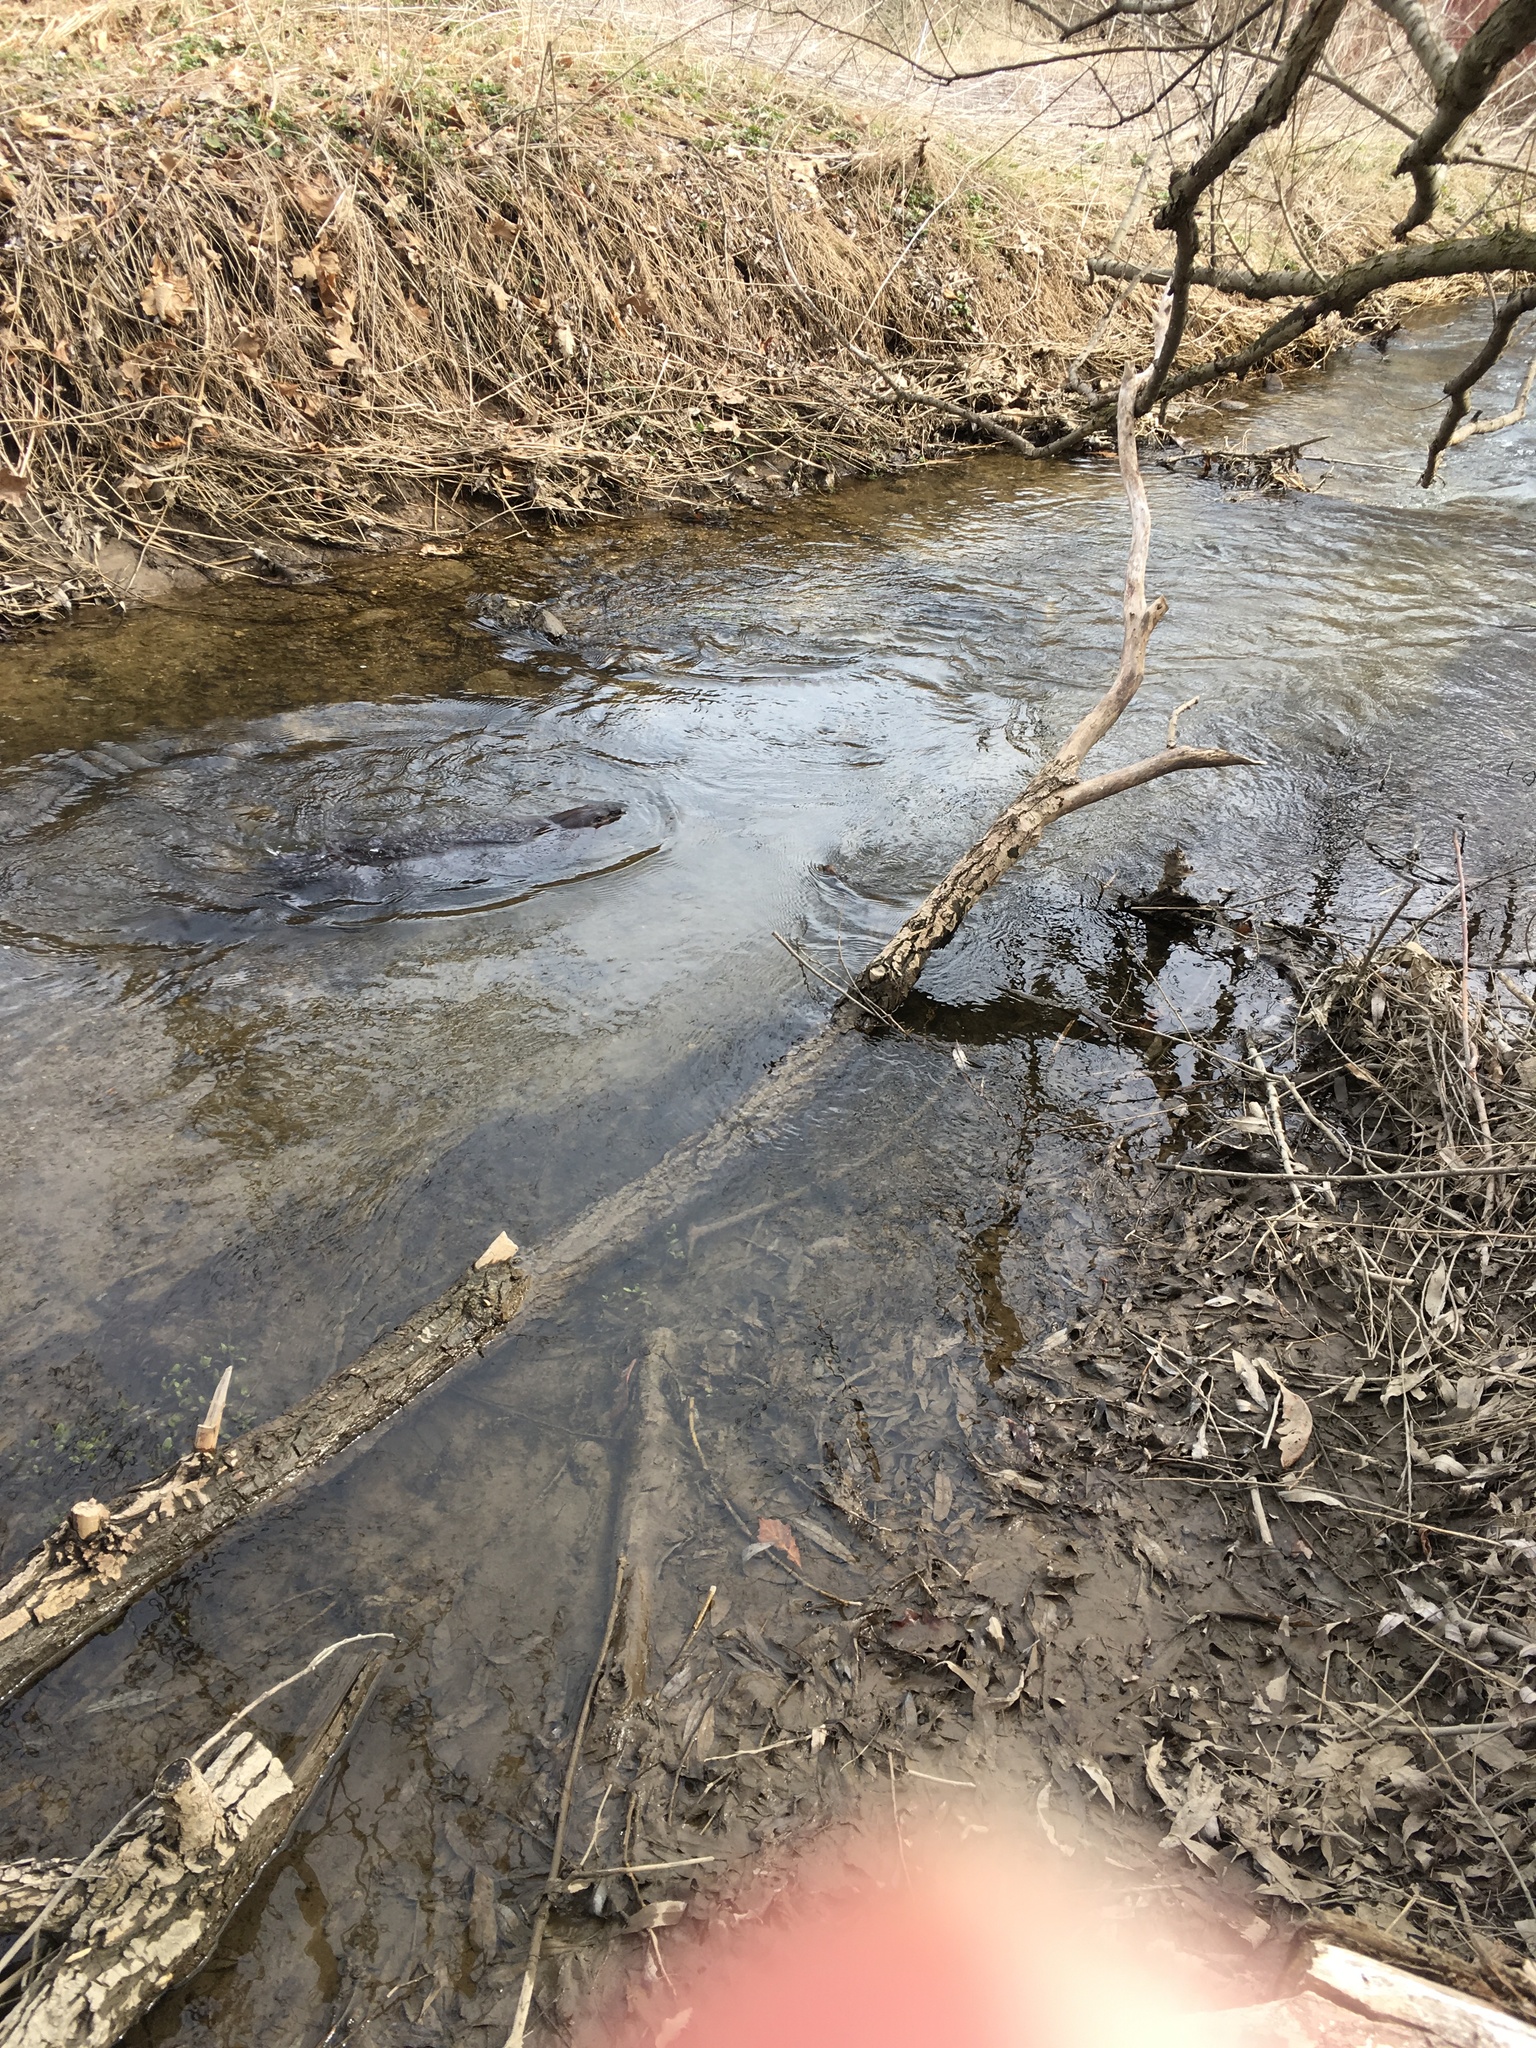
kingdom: Animalia
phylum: Chordata
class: Mammalia
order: Rodentia
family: Castoridae
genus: Castor
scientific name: Castor canadensis
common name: American beaver
